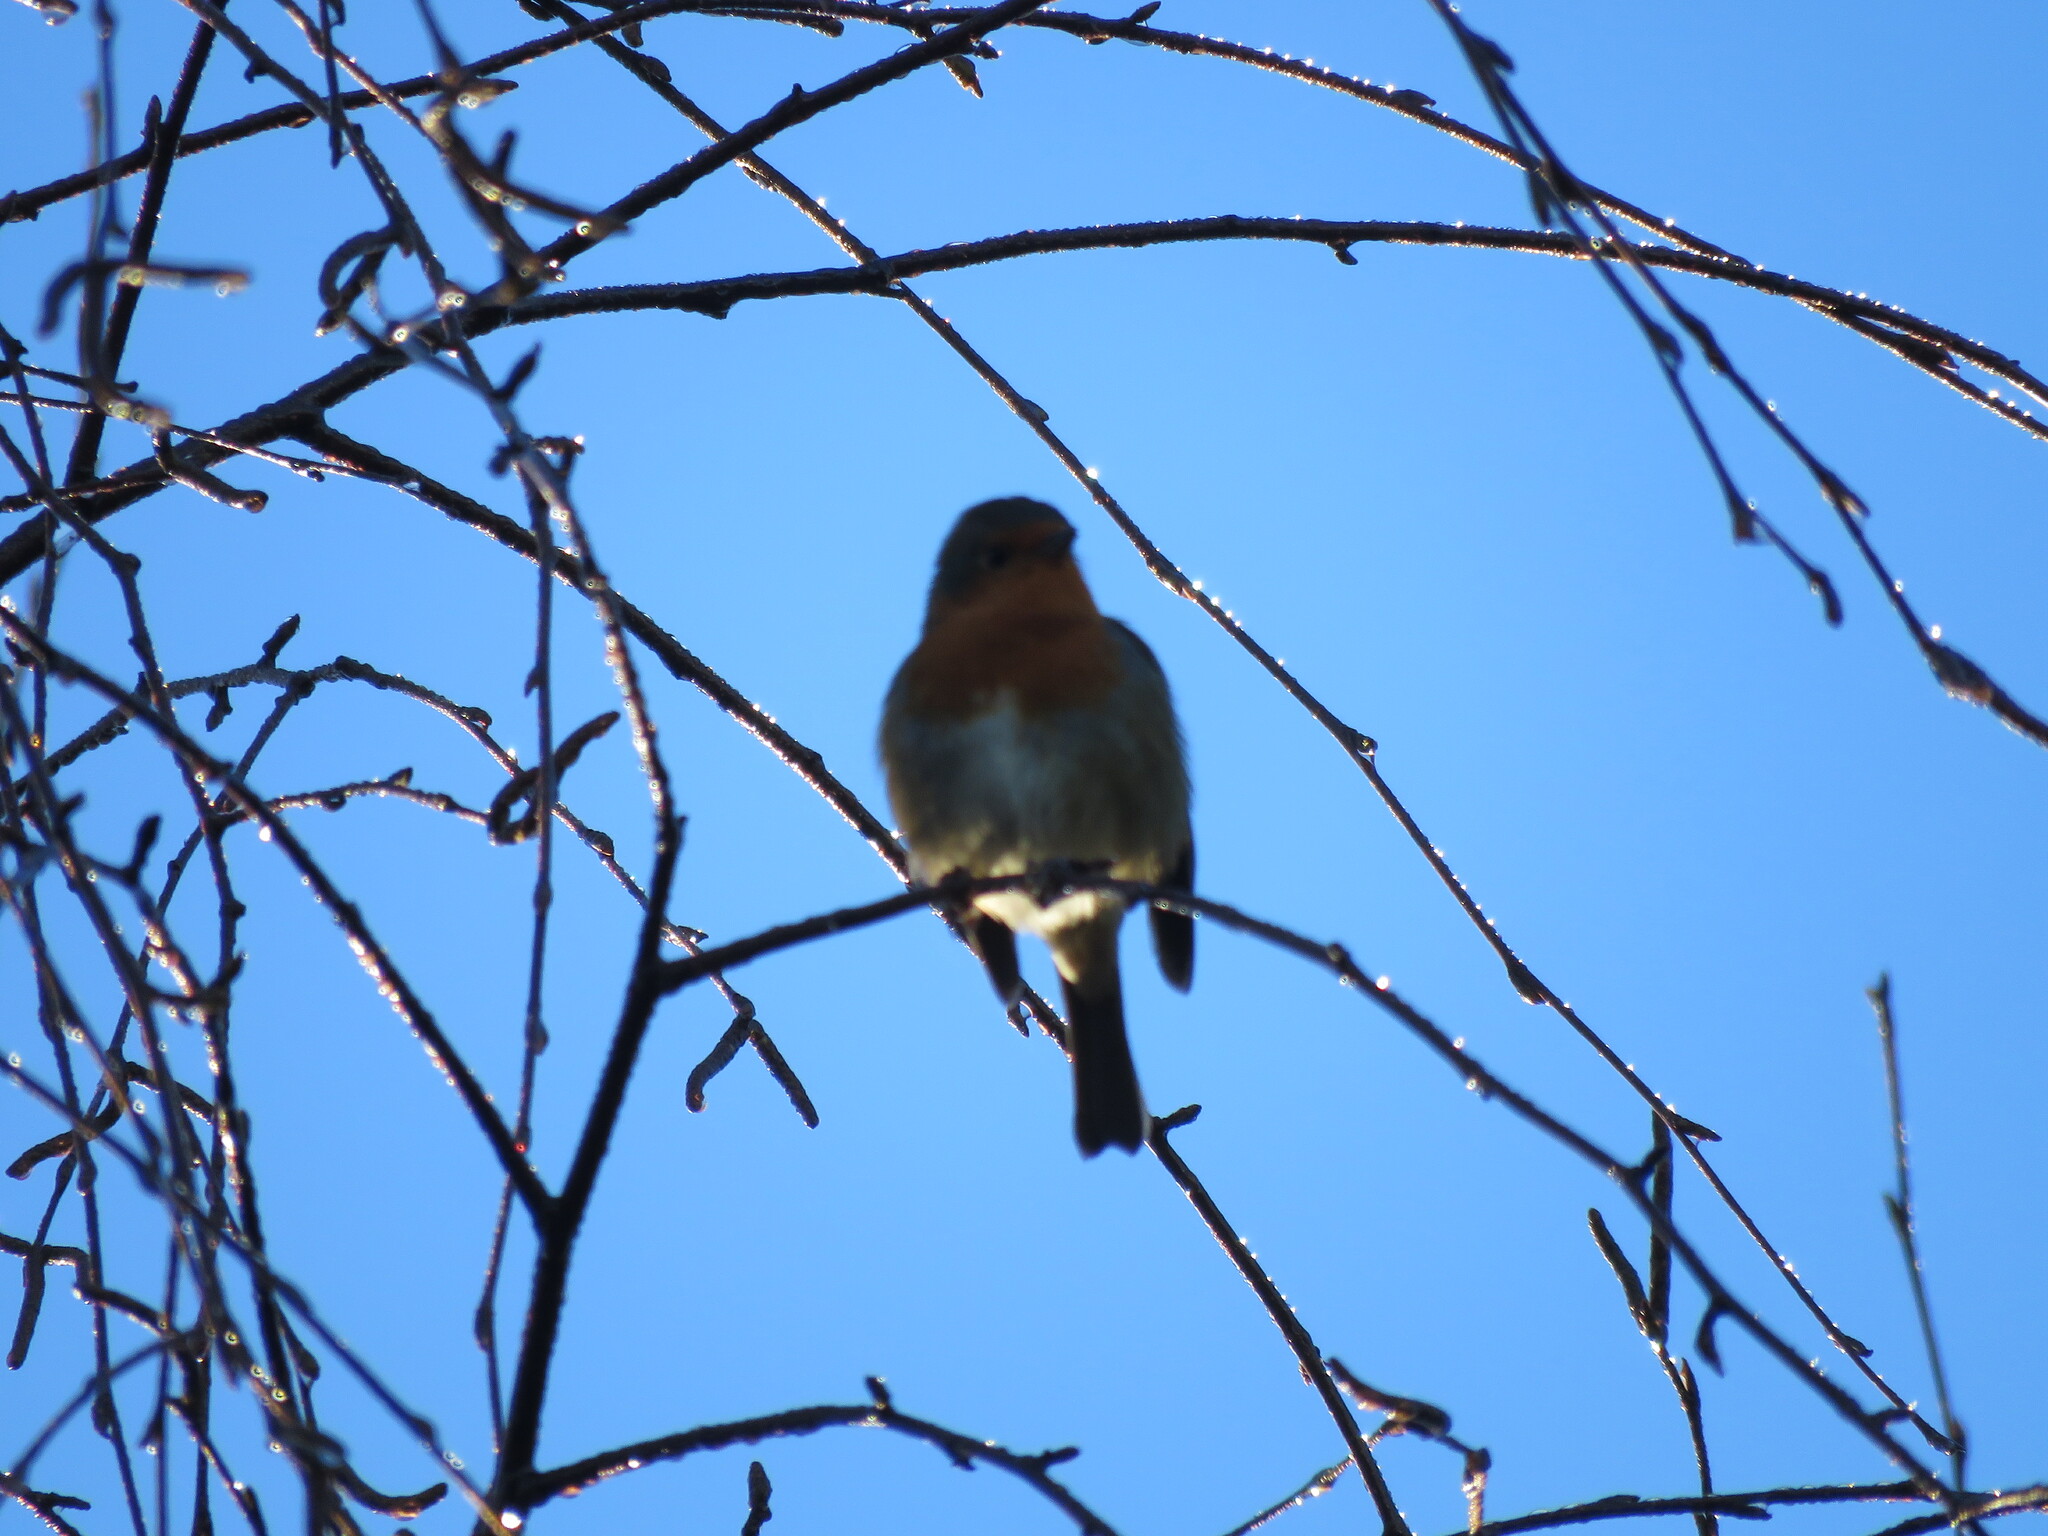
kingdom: Animalia
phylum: Chordata
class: Aves
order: Passeriformes
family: Muscicapidae
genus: Erithacus
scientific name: Erithacus rubecula
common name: European robin
